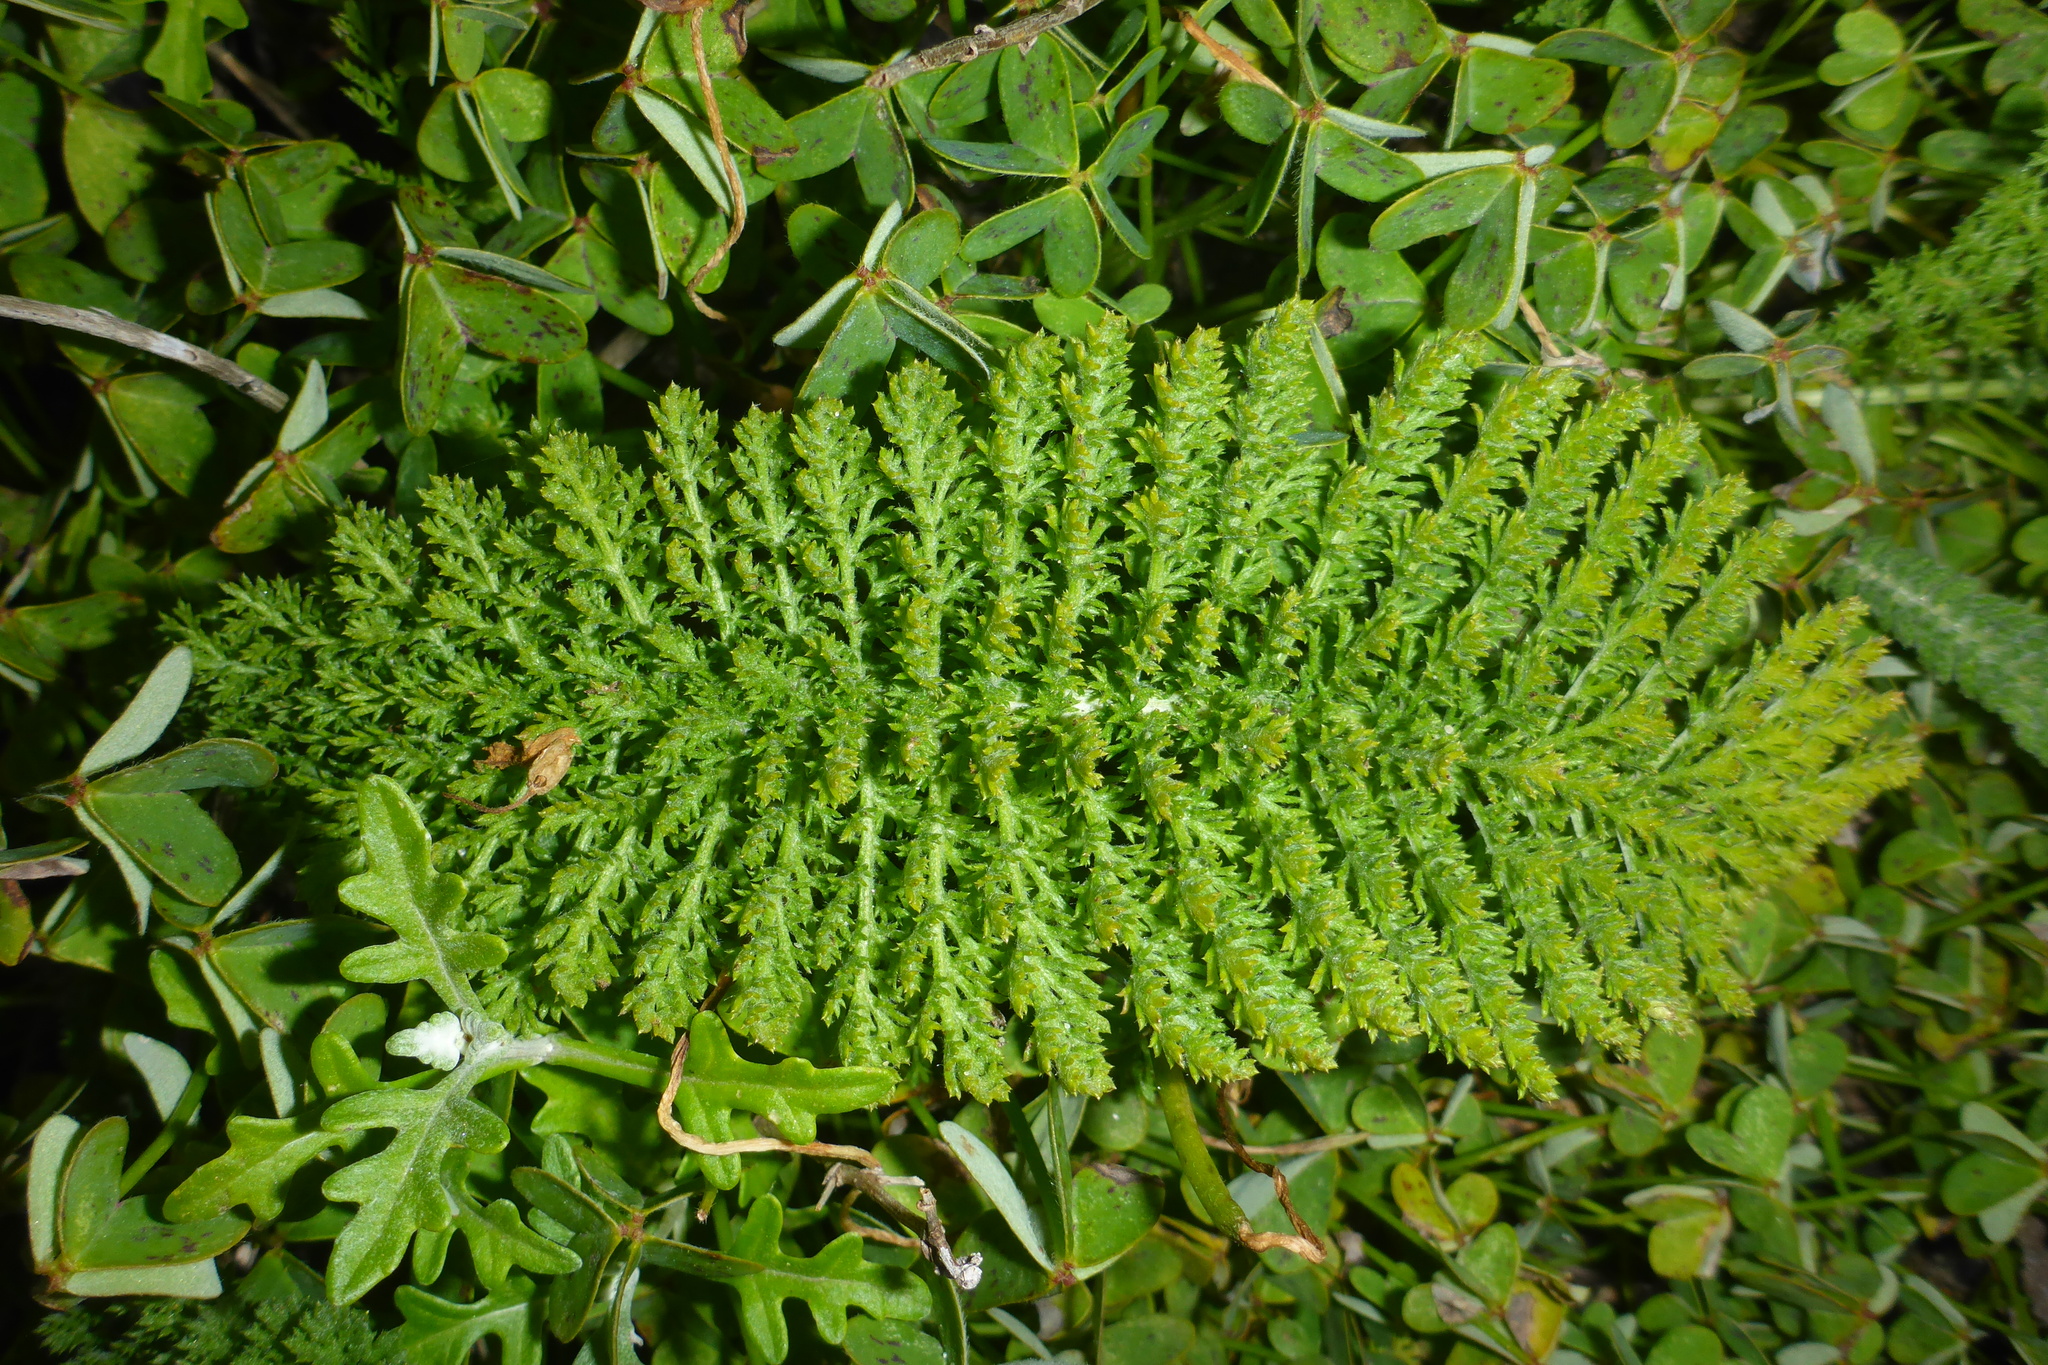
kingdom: Plantae
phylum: Tracheophyta
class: Magnoliopsida
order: Asterales
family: Asteraceae
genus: Achillea
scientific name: Achillea millefolium
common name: Yarrow
